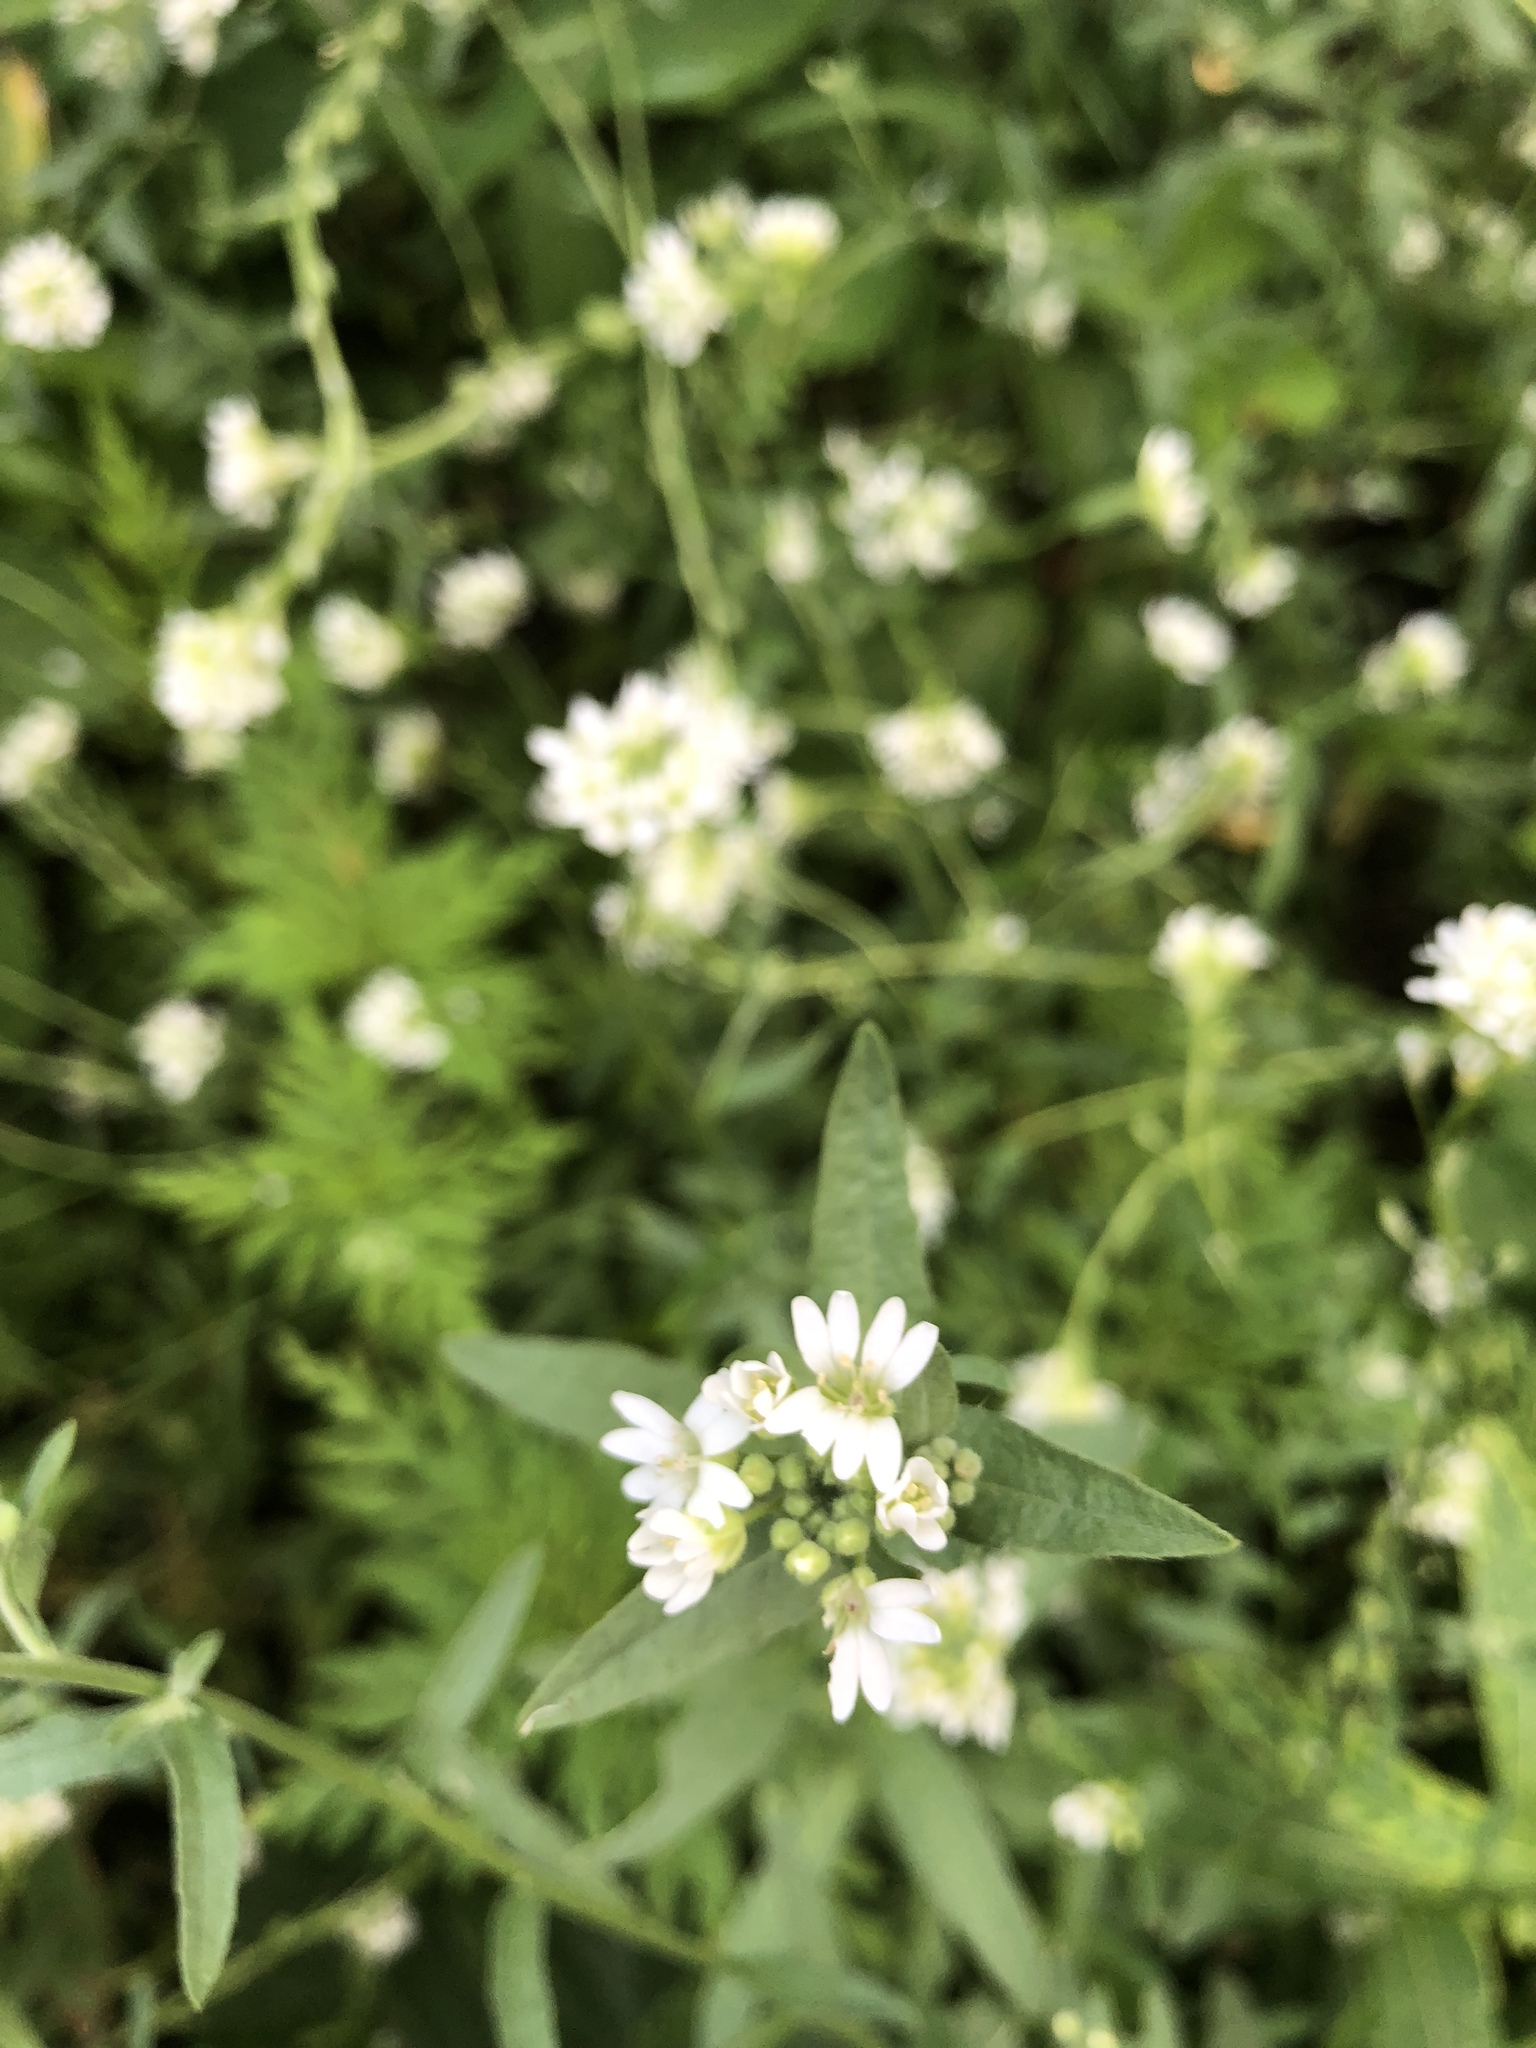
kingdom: Plantae
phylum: Tracheophyta
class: Magnoliopsida
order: Brassicales
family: Brassicaceae
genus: Berteroa
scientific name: Berteroa incana
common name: Hoary alison
